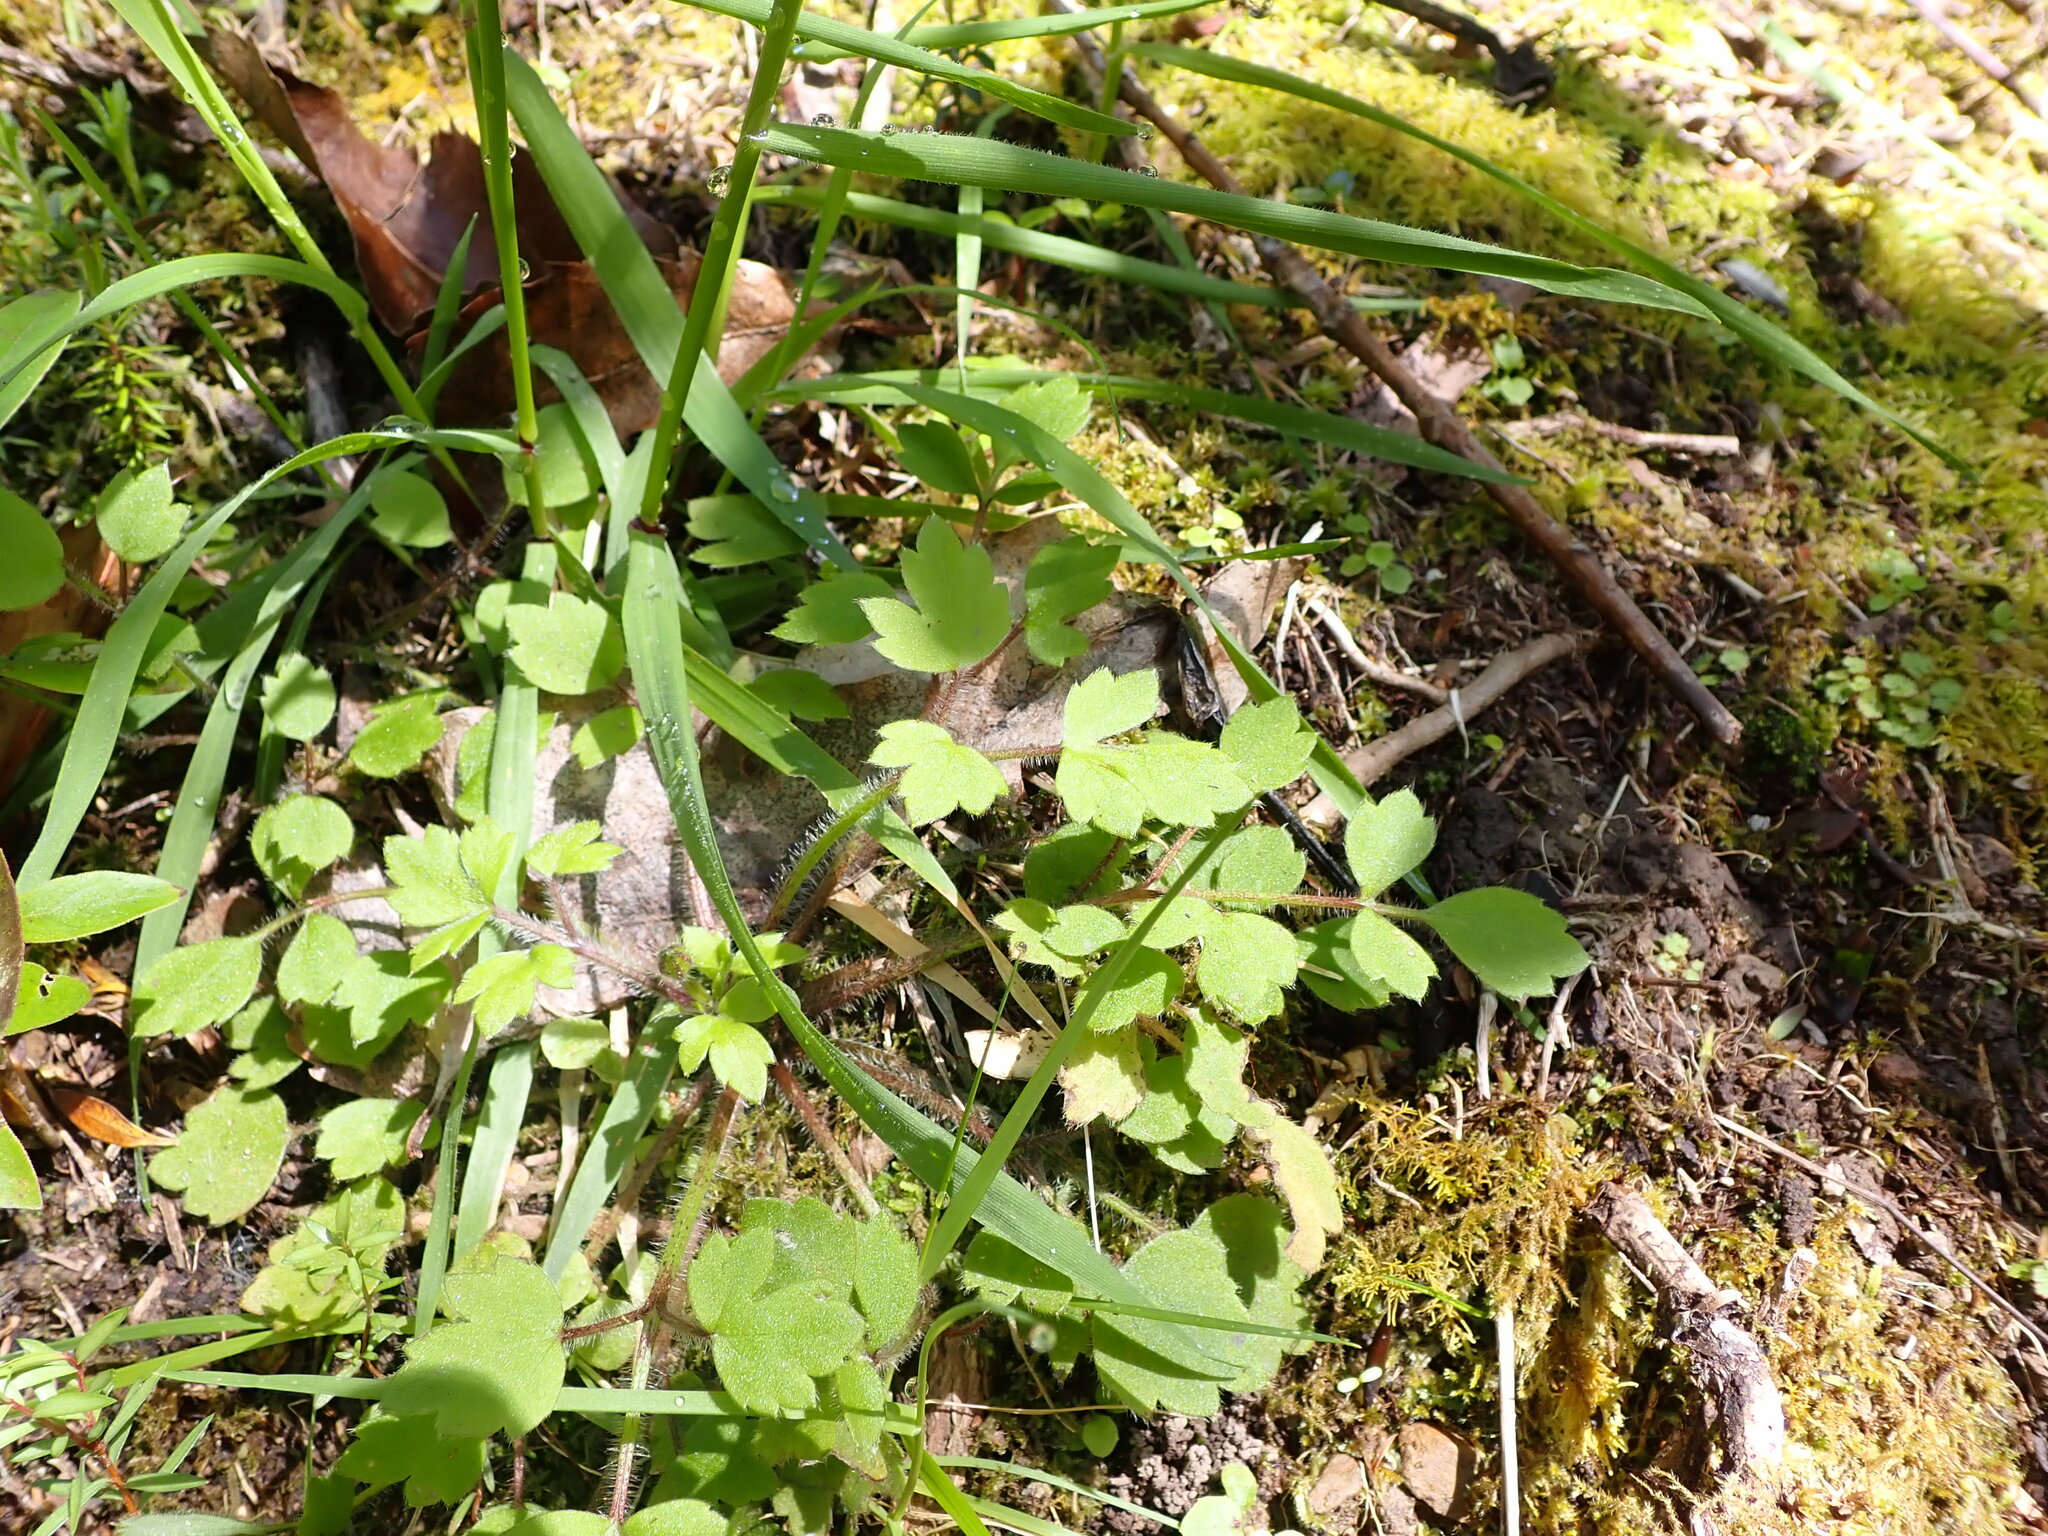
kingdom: Plantae
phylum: Tracheophyta
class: Magnoliopsida
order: Ranunculales
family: Ranunculaceae
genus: Ranunculus
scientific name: Ranunculus reflexus
